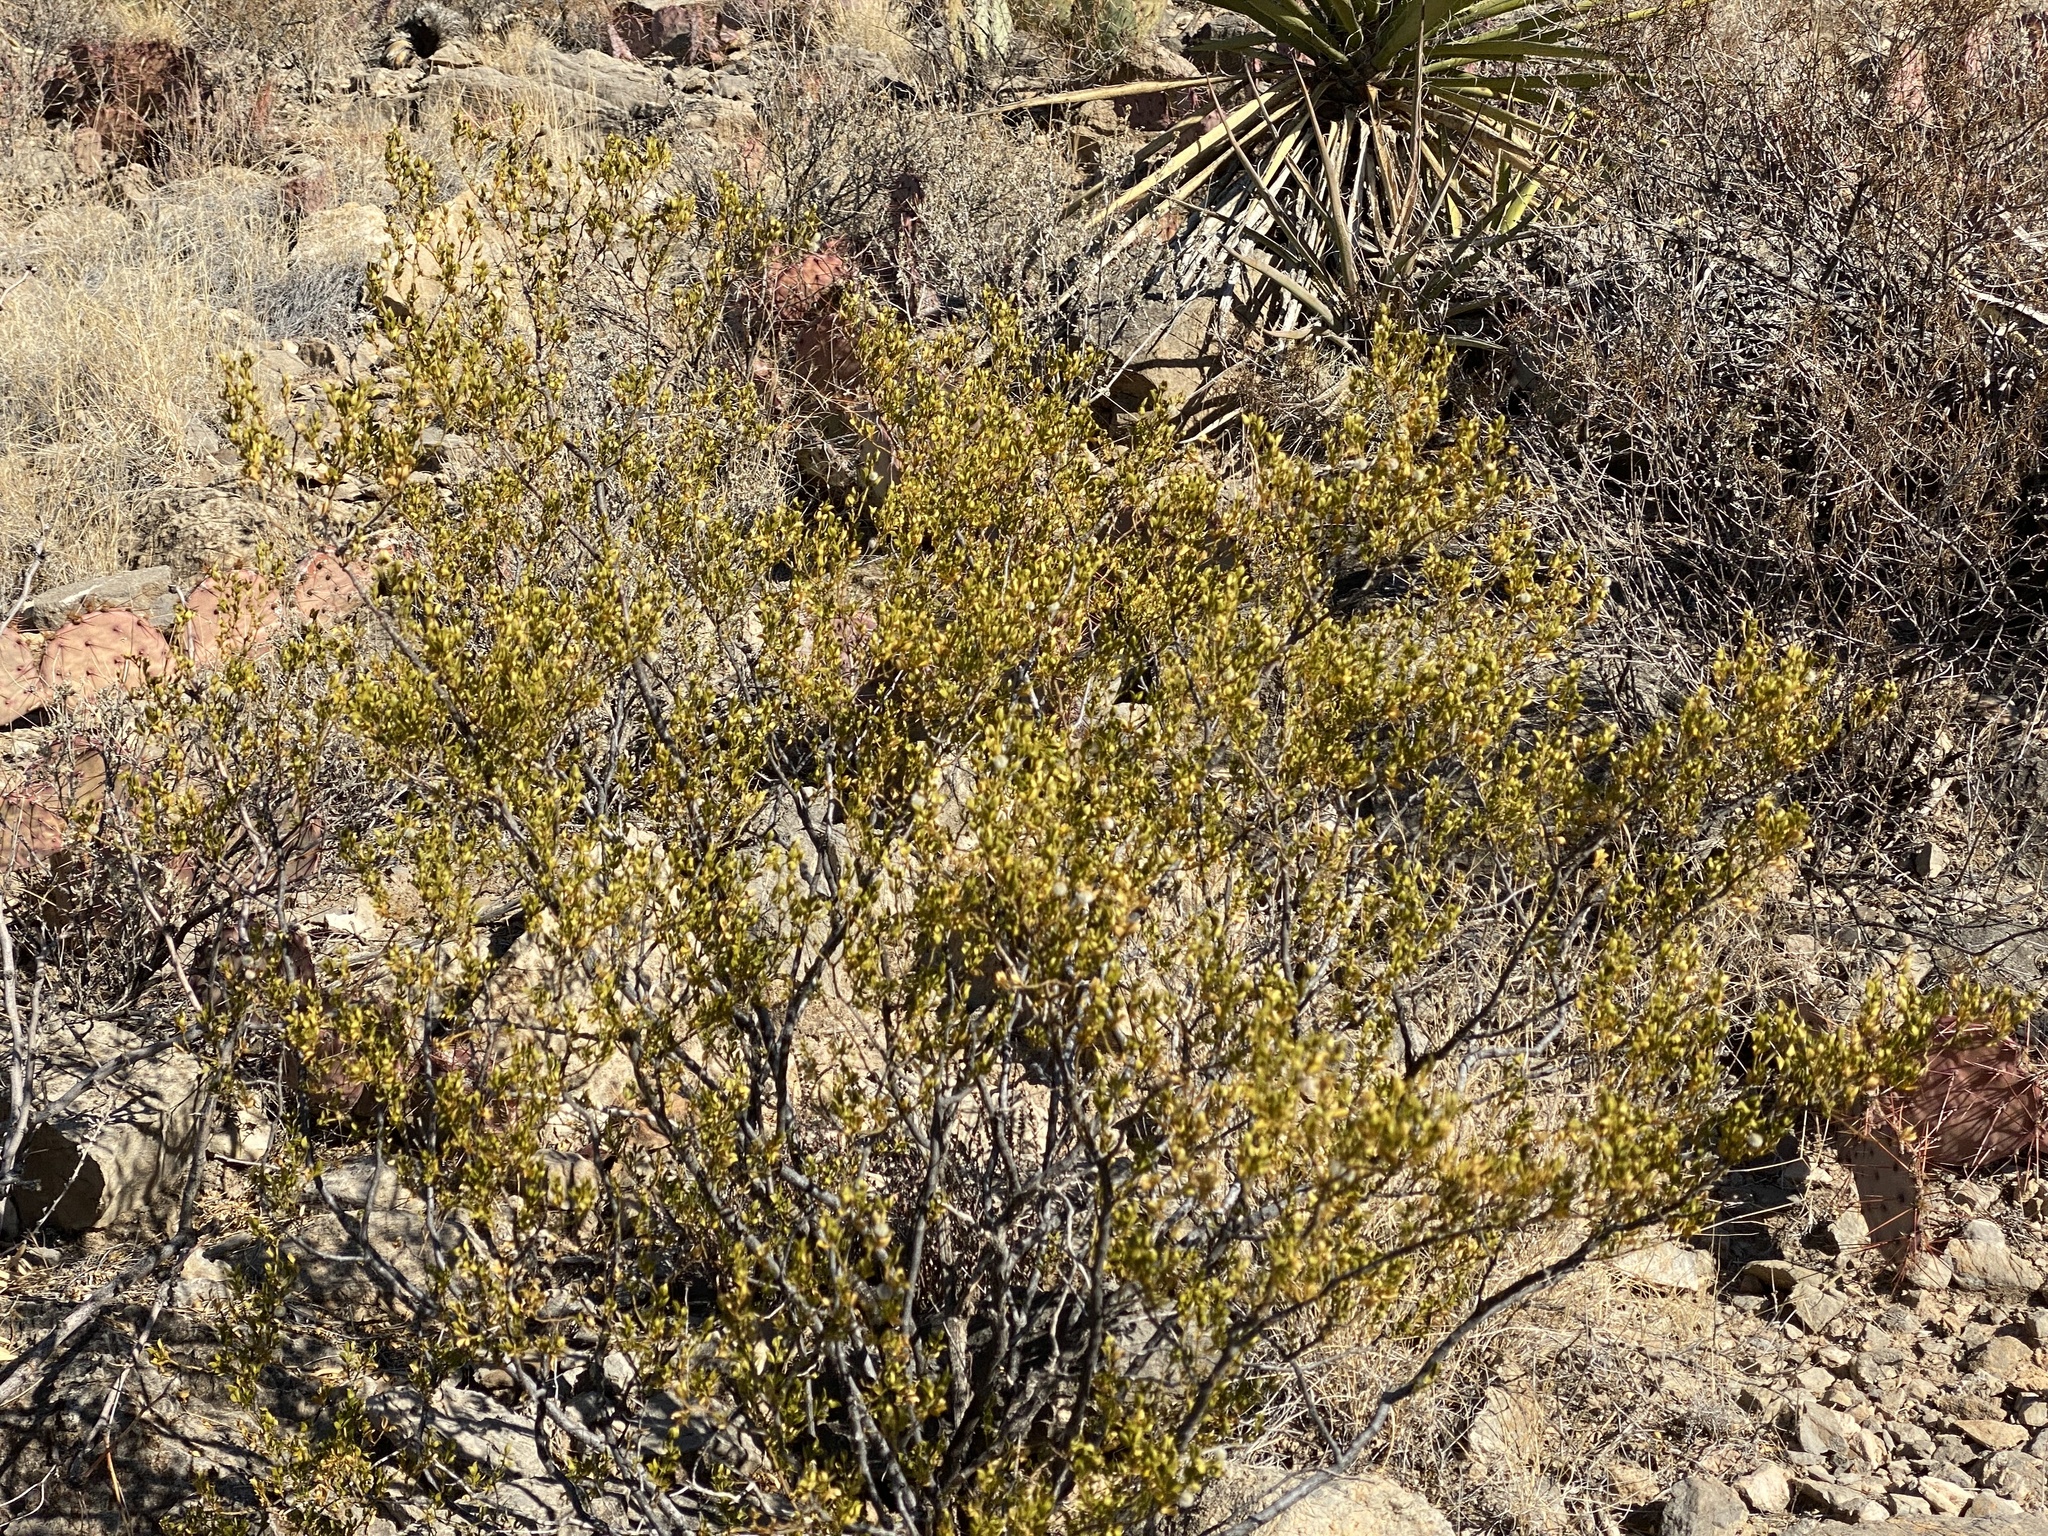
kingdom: Plantae
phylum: Tracheophyta
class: Magnoliopsida
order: Zygophyllales
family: Zygophyllaceae
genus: Larrea
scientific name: Larrea tridentata
